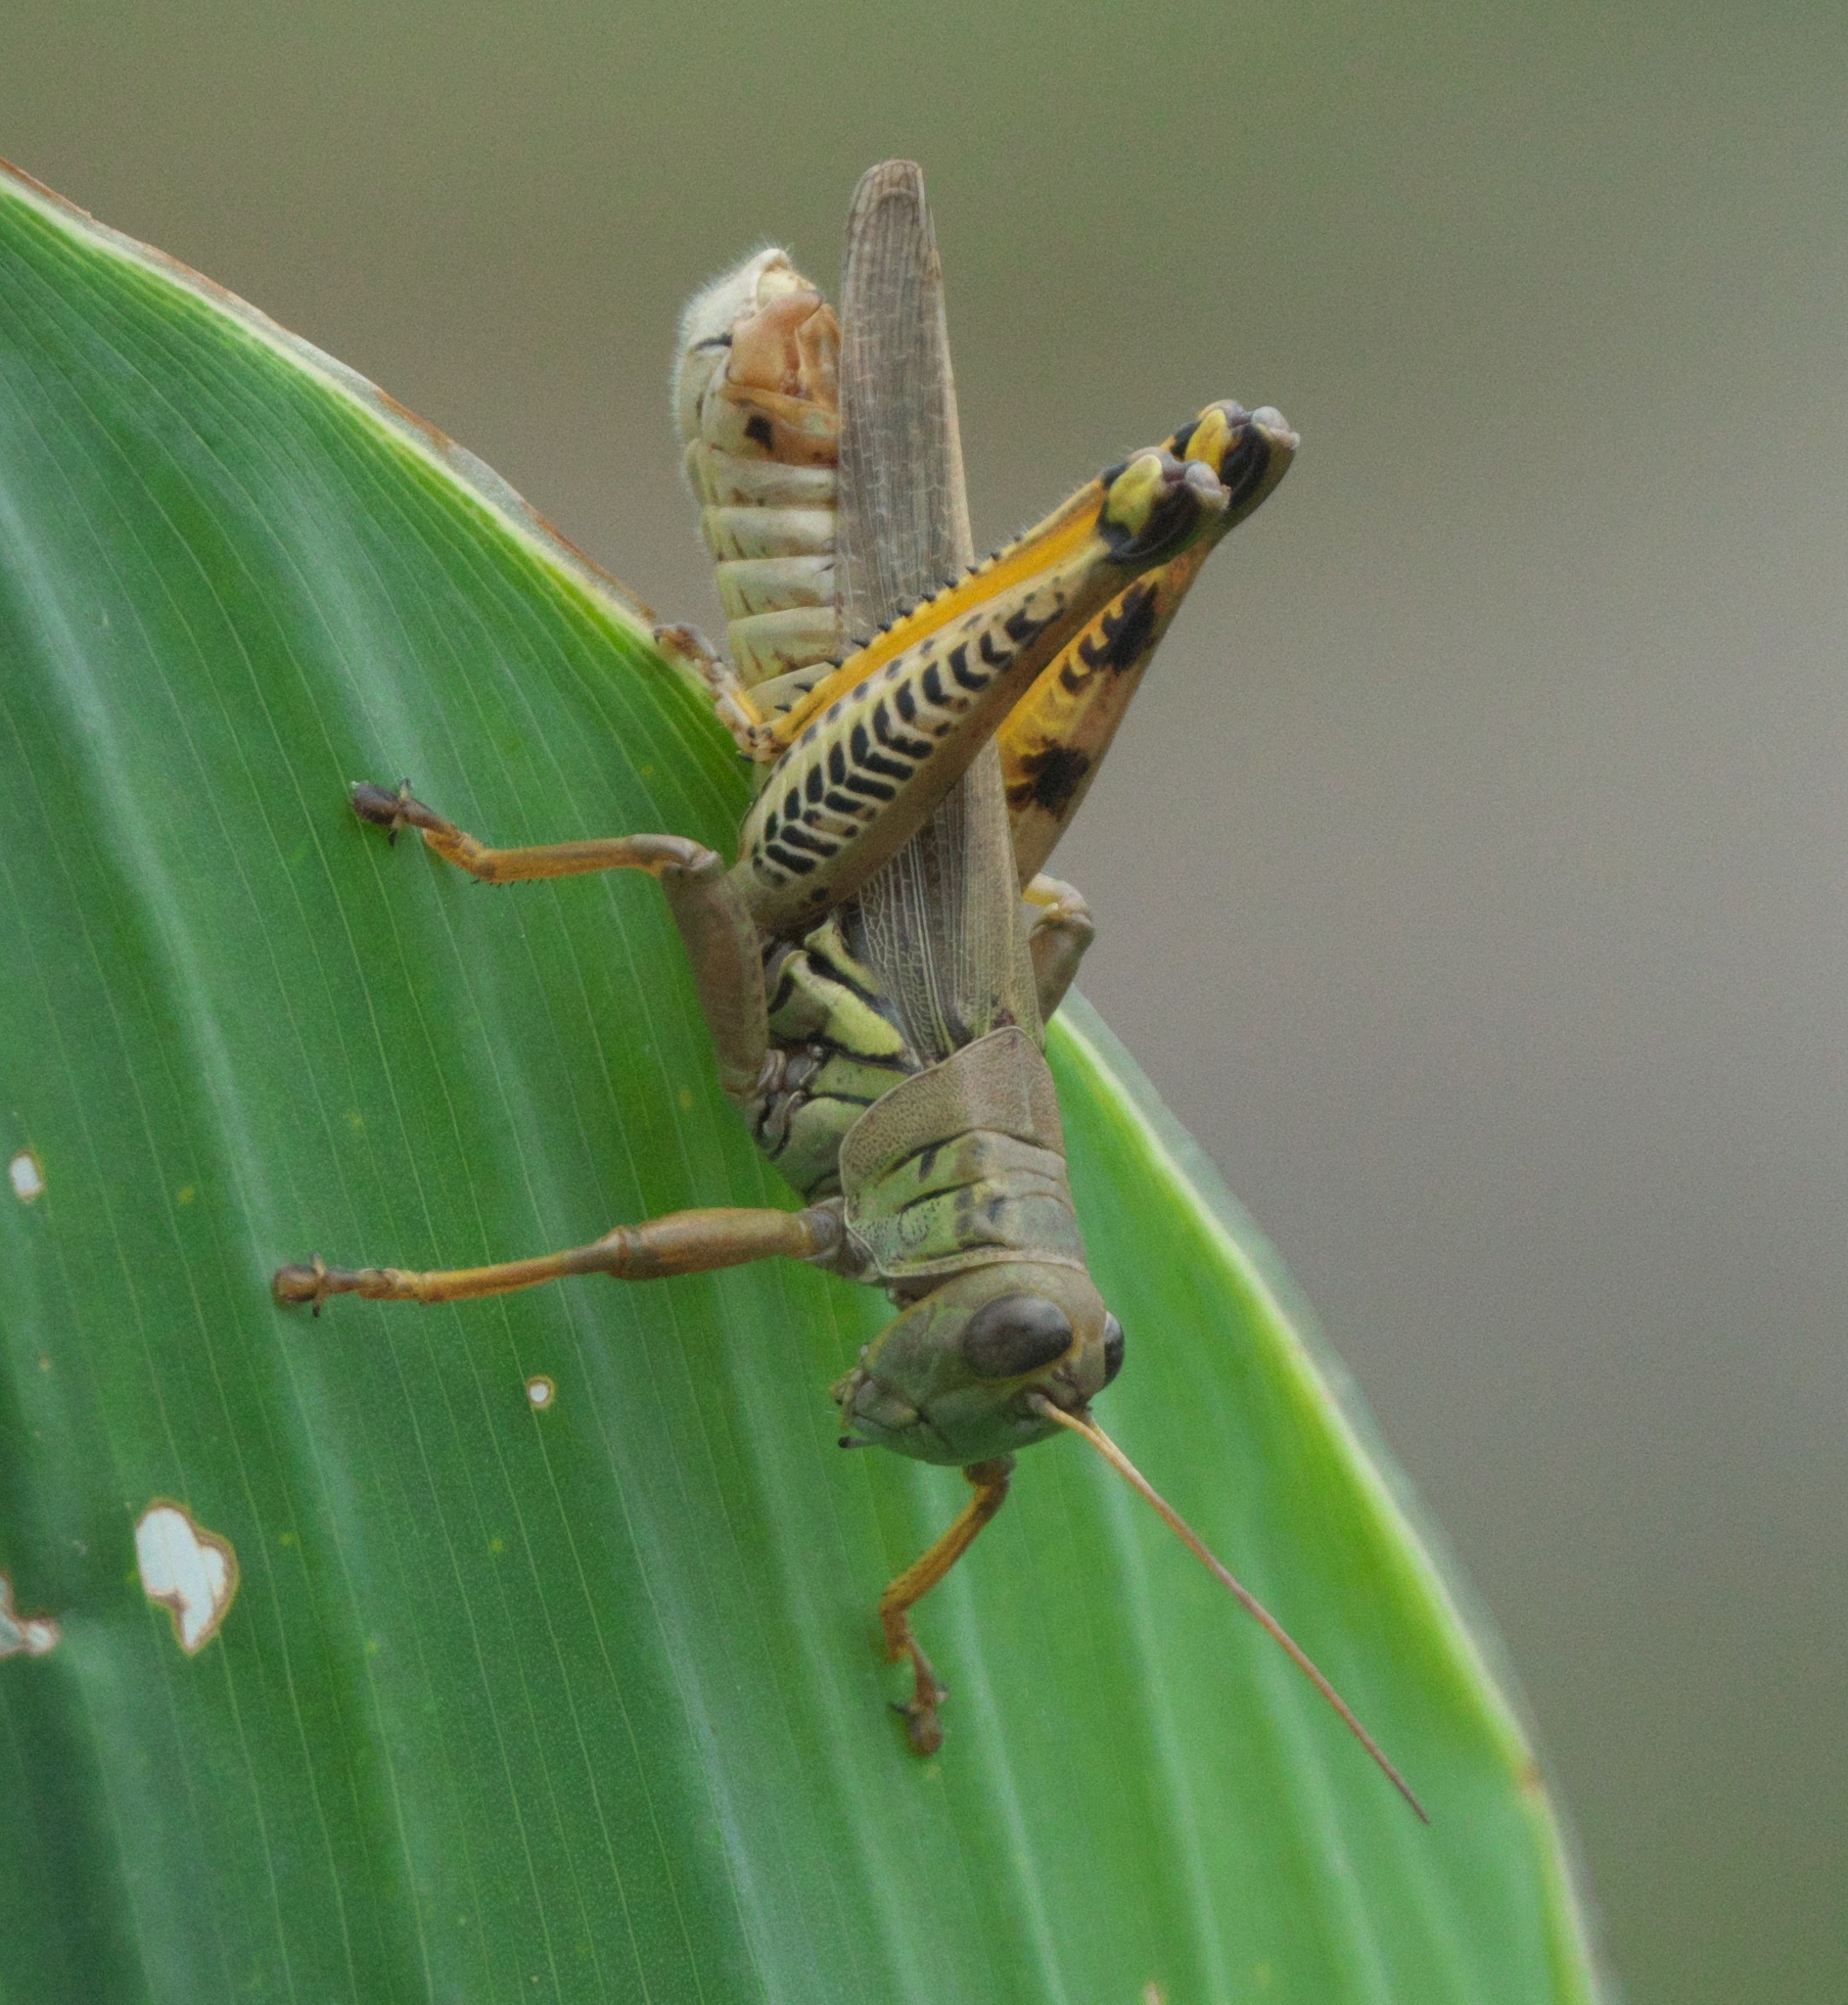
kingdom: Animalia
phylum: Arthropoda
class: Insecta
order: Orthoptera
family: Acrididae
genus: Melanoplus
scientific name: Melanoplus differentialis
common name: Differential grasshopper
